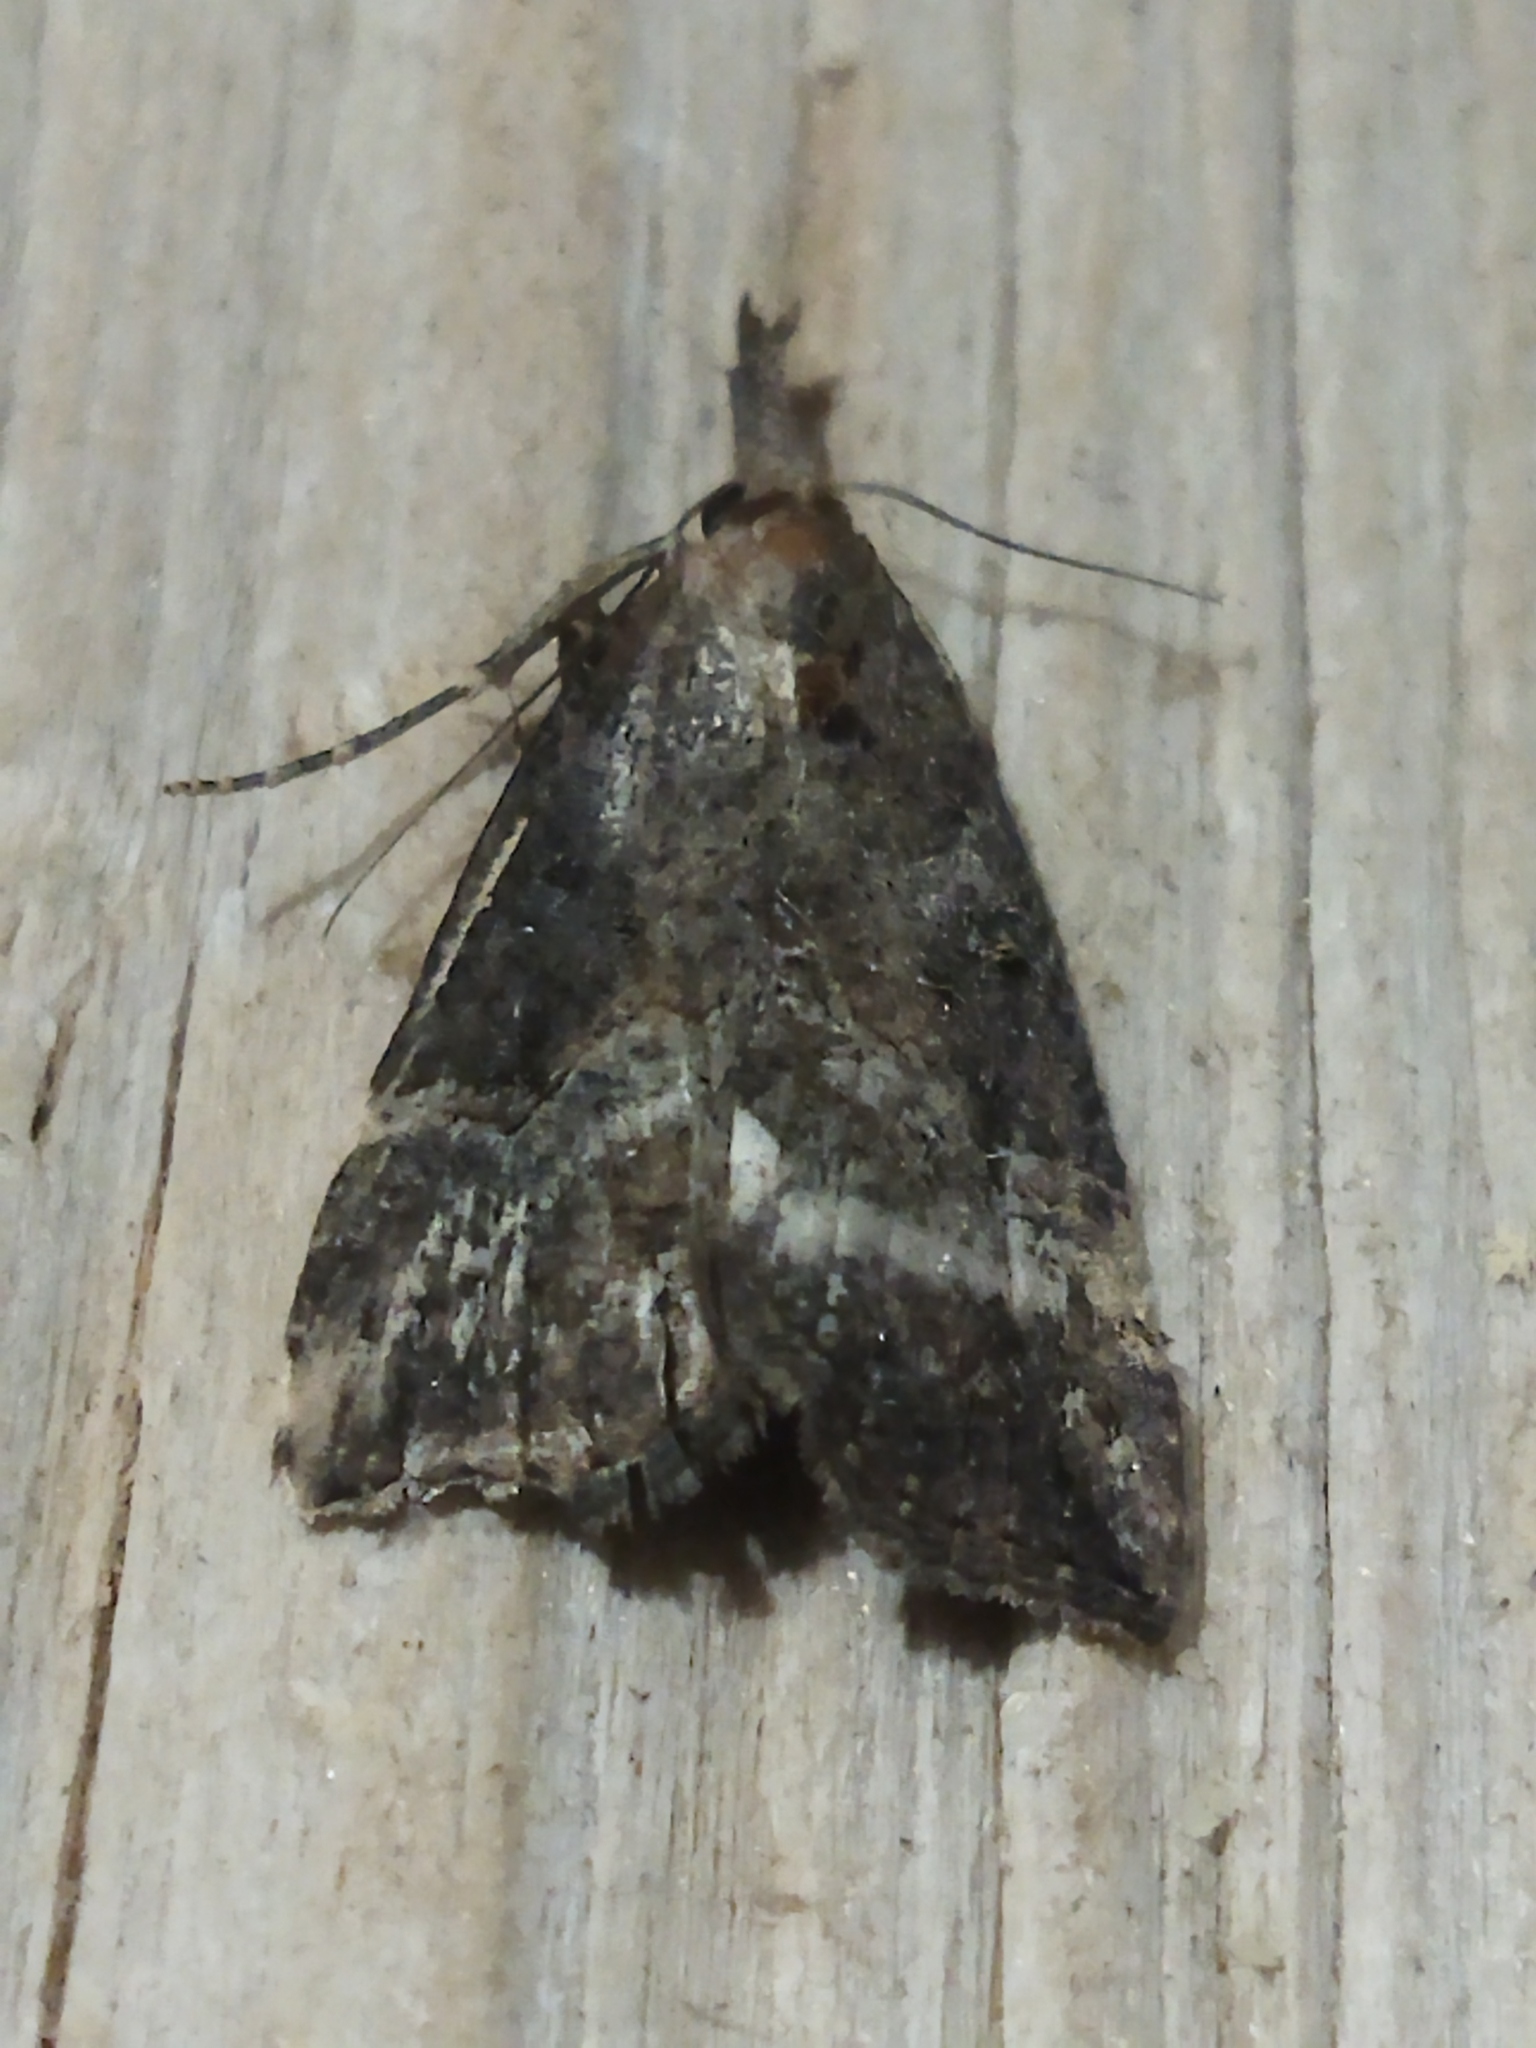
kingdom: Animalia
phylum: Arthropoda
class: Insecta
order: Lepidoptera
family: Erebidae
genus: Hypena
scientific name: Hypena rostralis
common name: Buttoned snout
